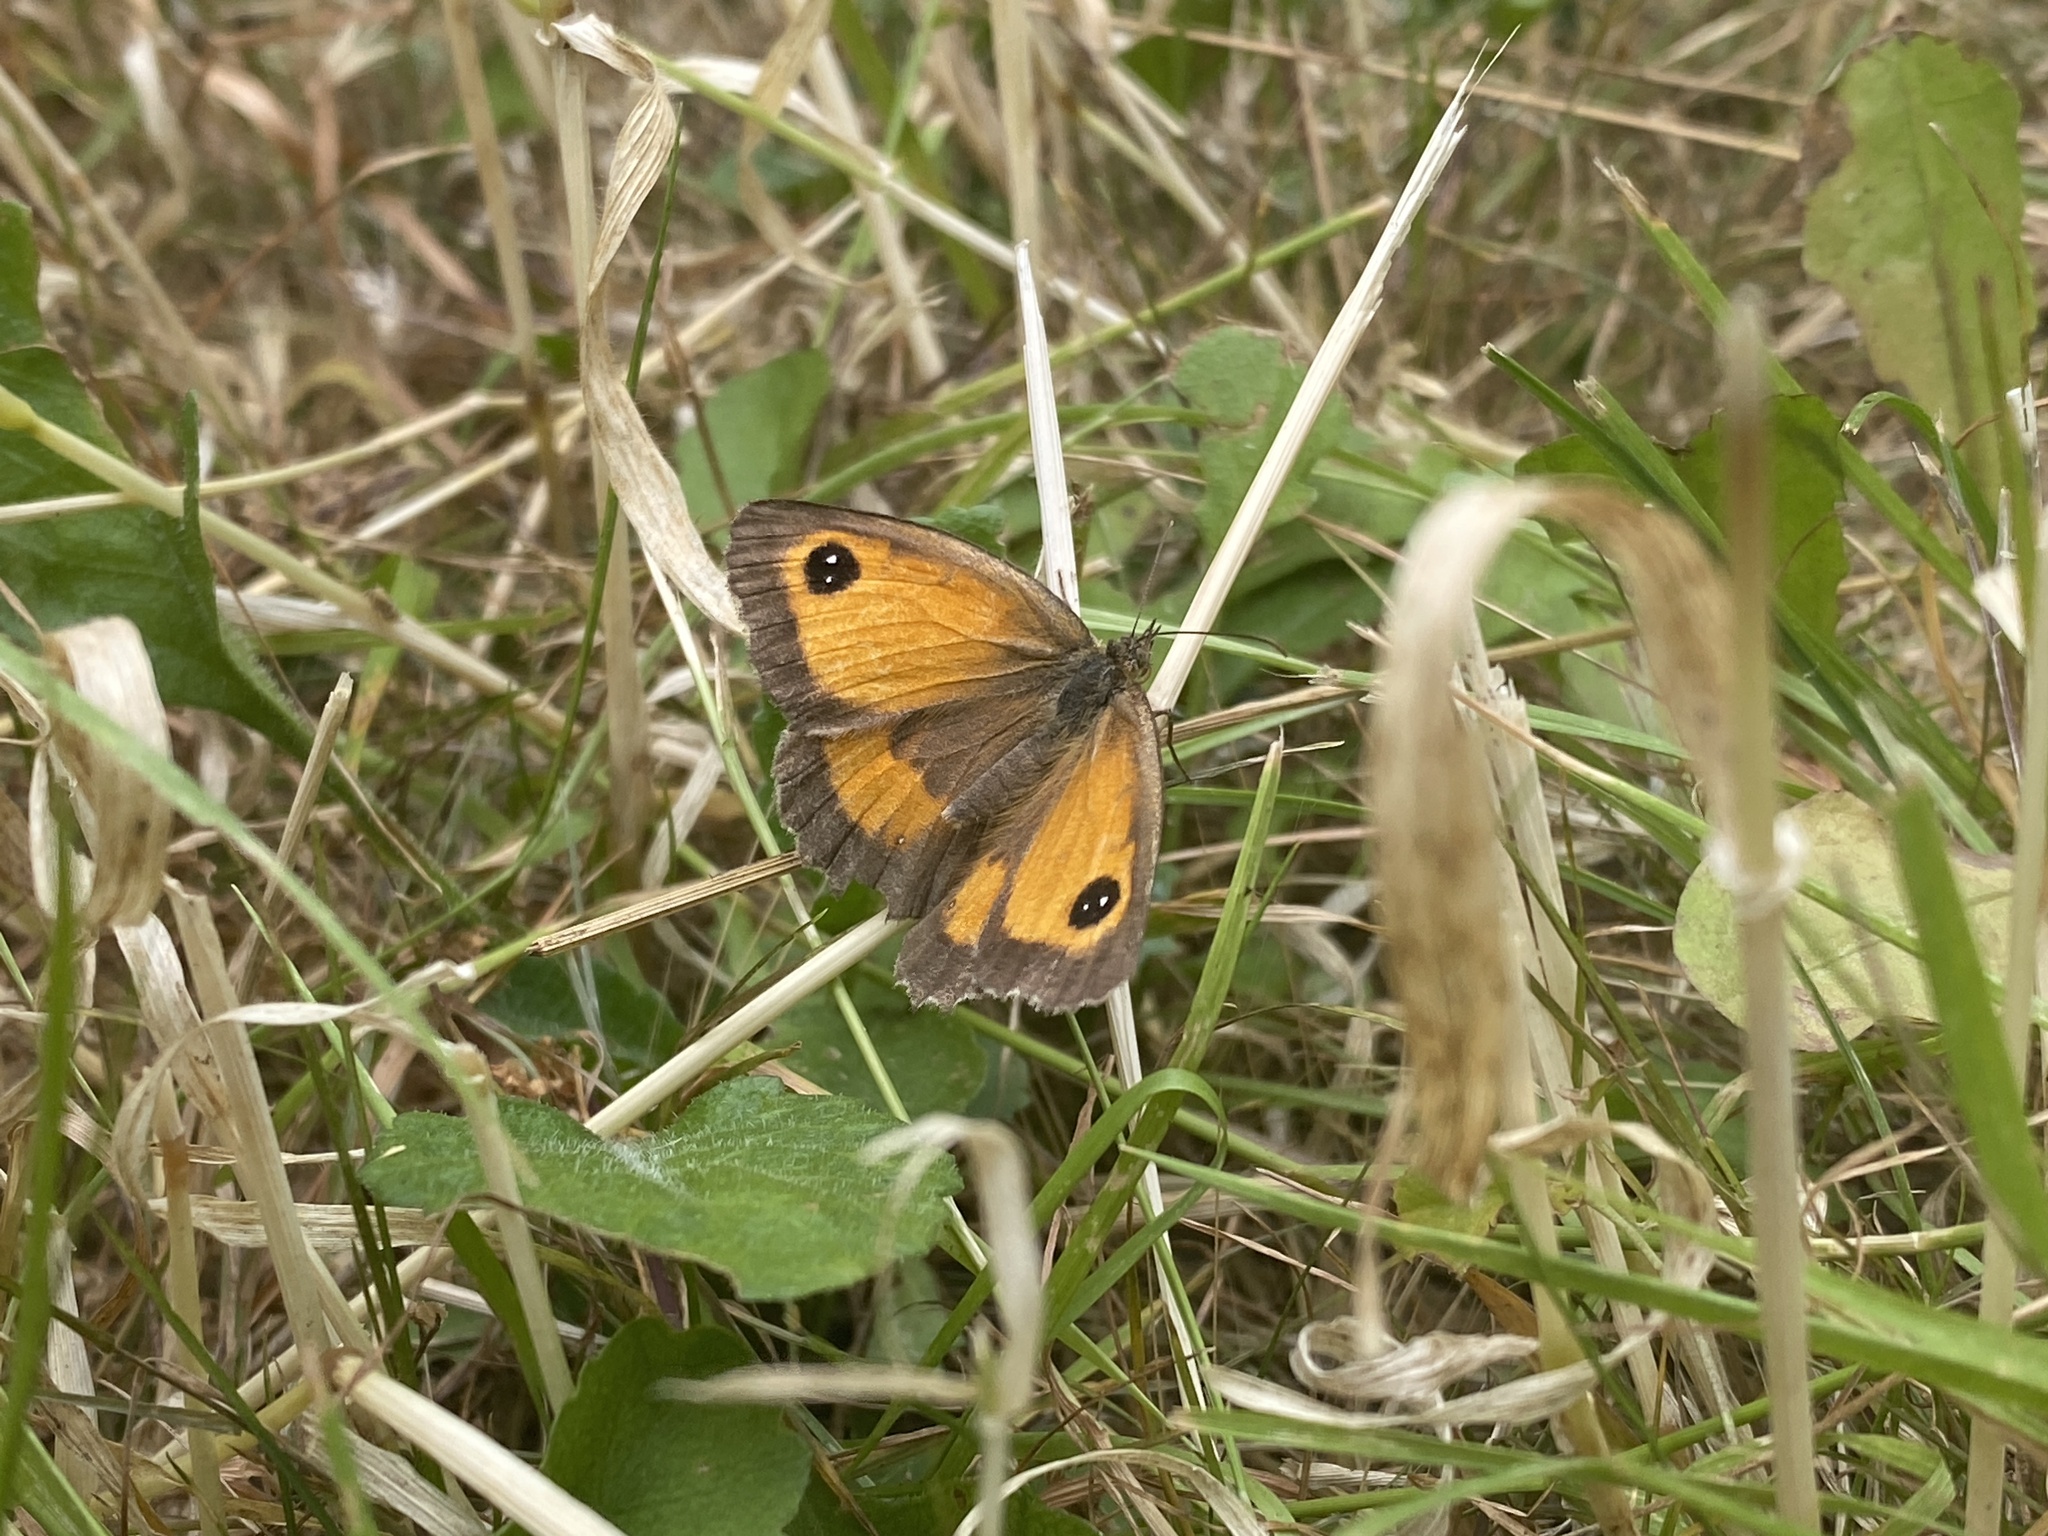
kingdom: Animalia
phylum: Arthropoda
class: Insecta
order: Lepidoptera
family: Nymphalidae
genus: Pyronia
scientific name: Pyronia tithonus
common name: Gatekeeper
